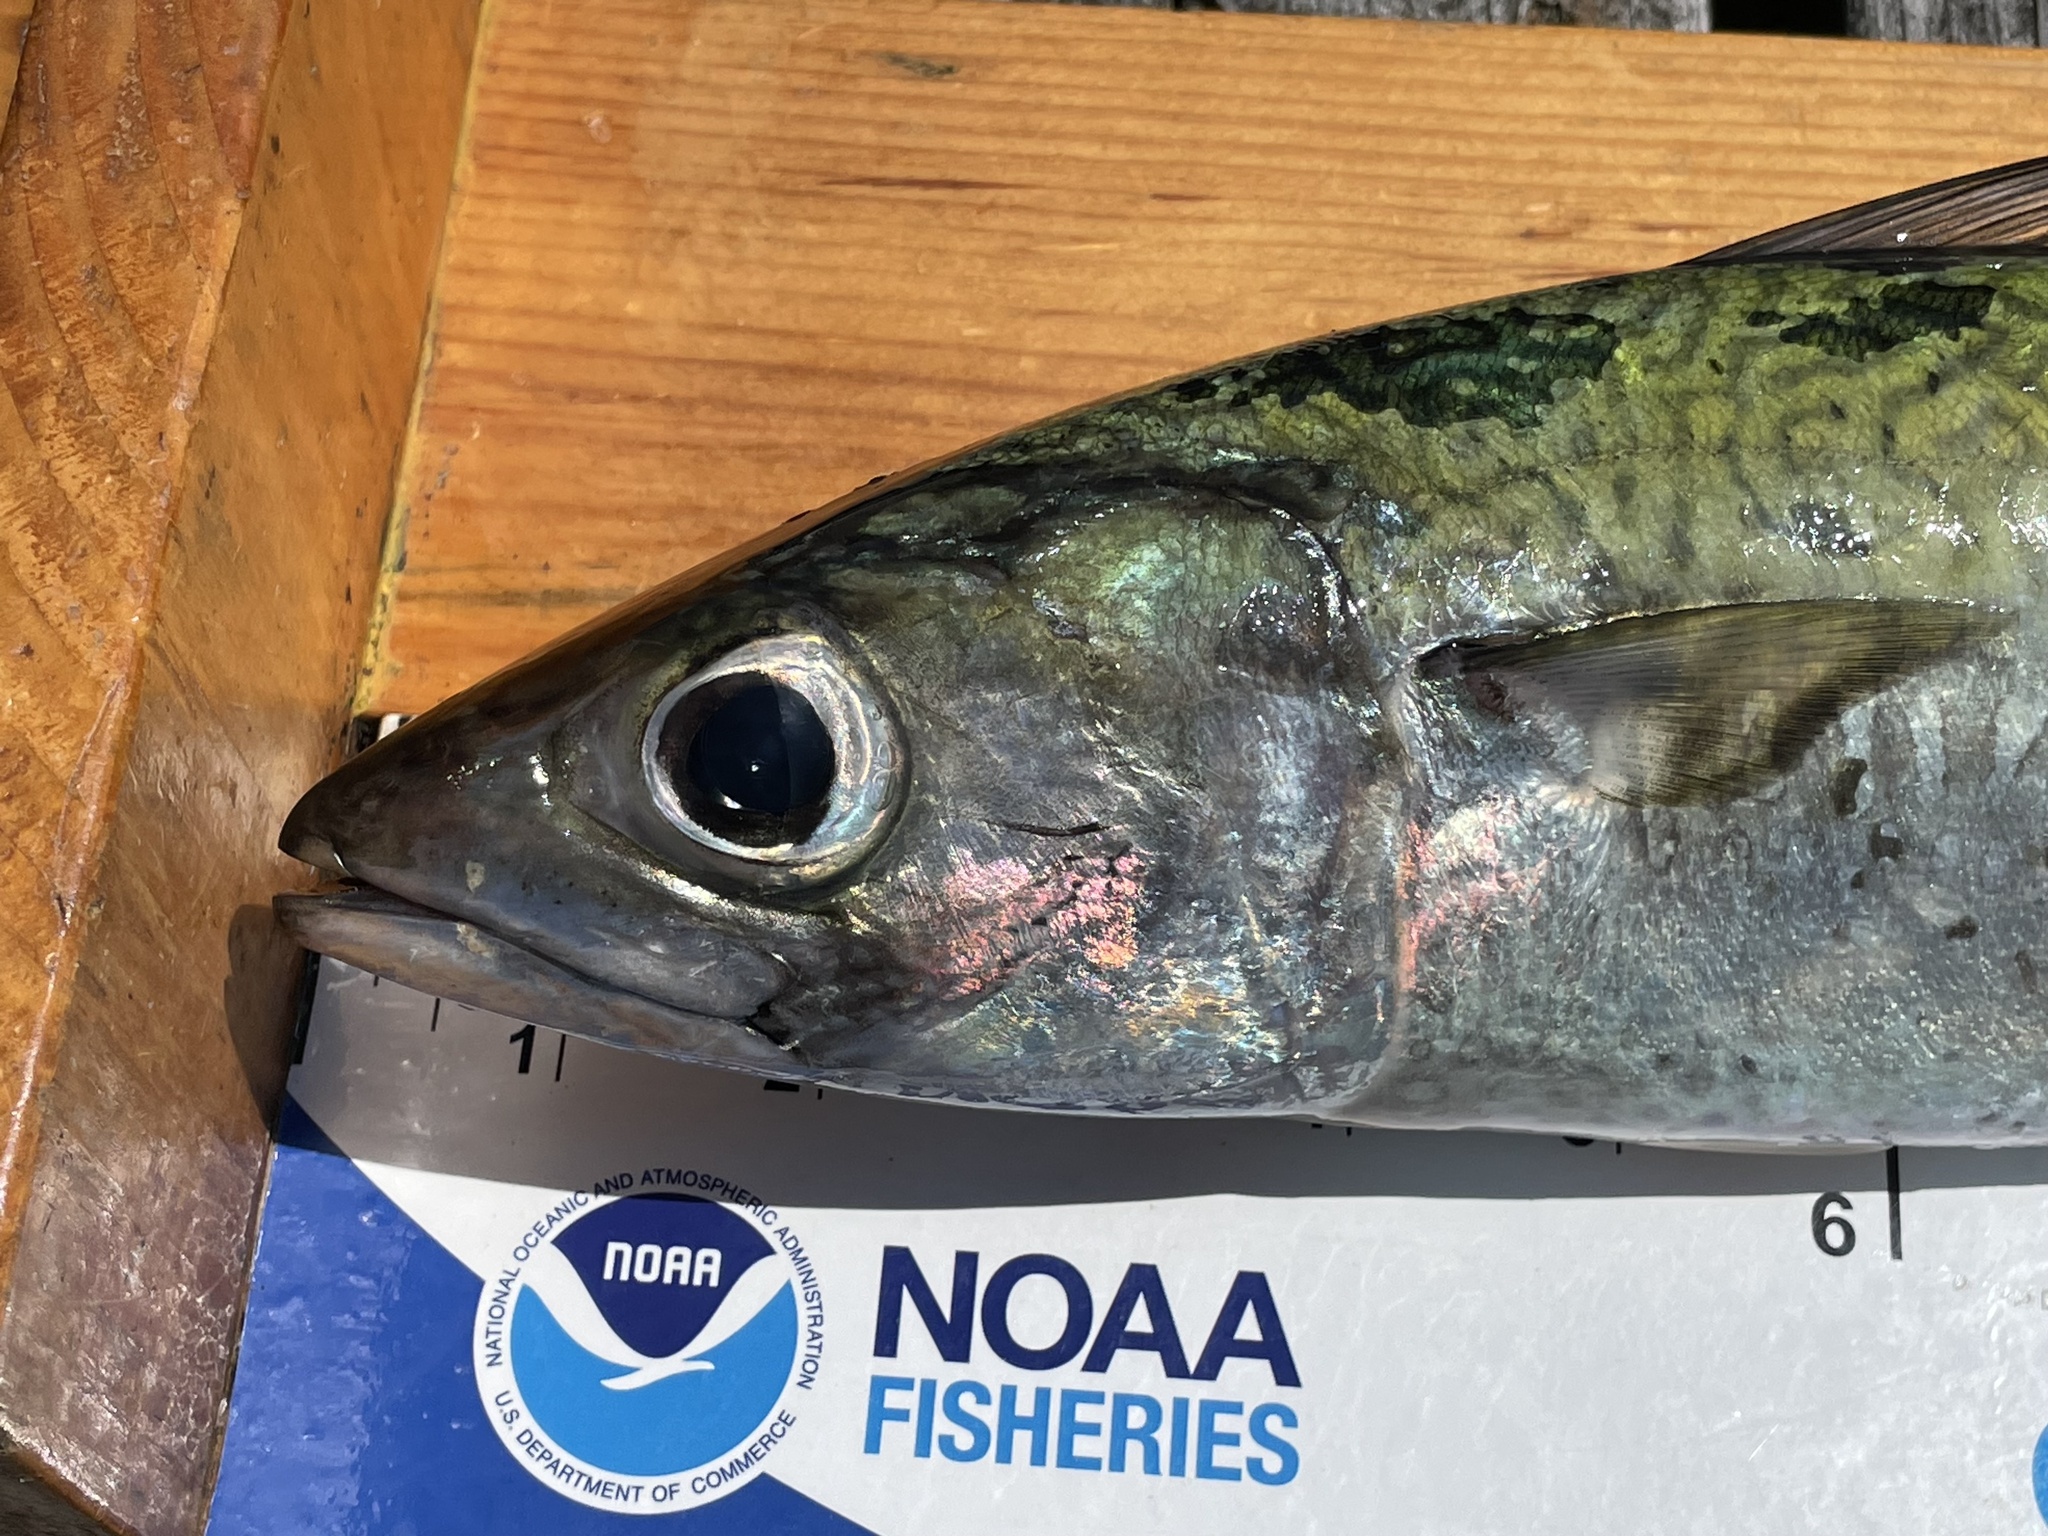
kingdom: Animalia
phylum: Chordata
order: Perciformes
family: Scombridae
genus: Scomber
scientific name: Scomber colias
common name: Atlantic chub mackerel
